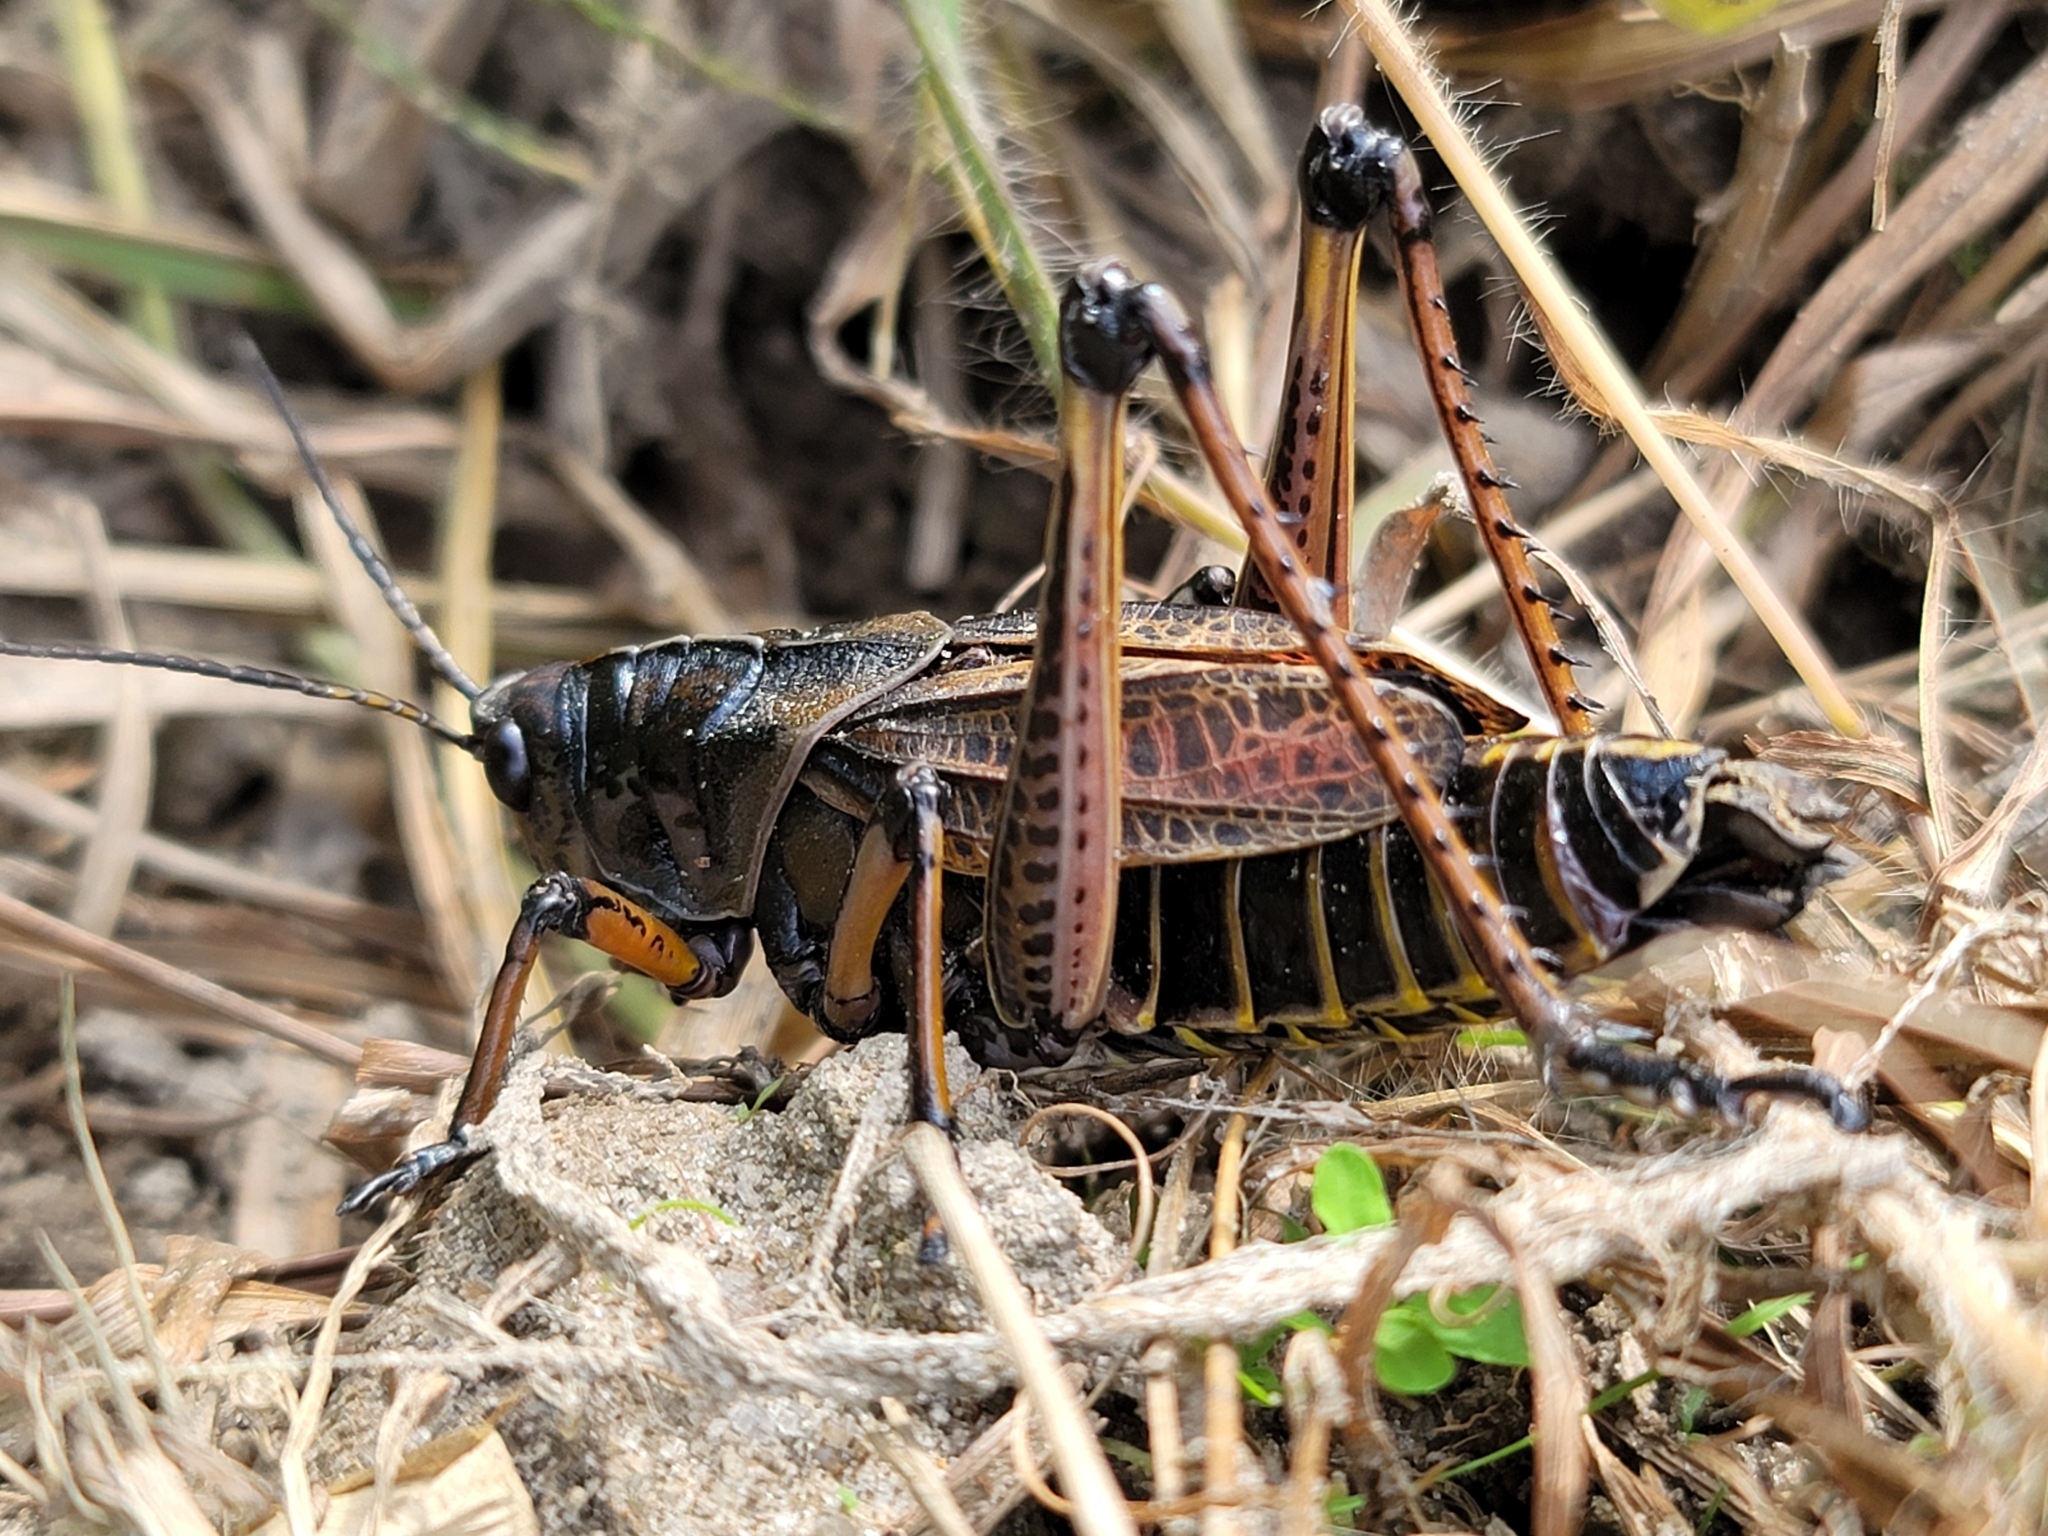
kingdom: Animalia
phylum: Arthropoda
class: Insecta
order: Orthoptera
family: Romaleidae
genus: Romalea
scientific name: Romalea microptera
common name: Eastern lubber grasshopper
